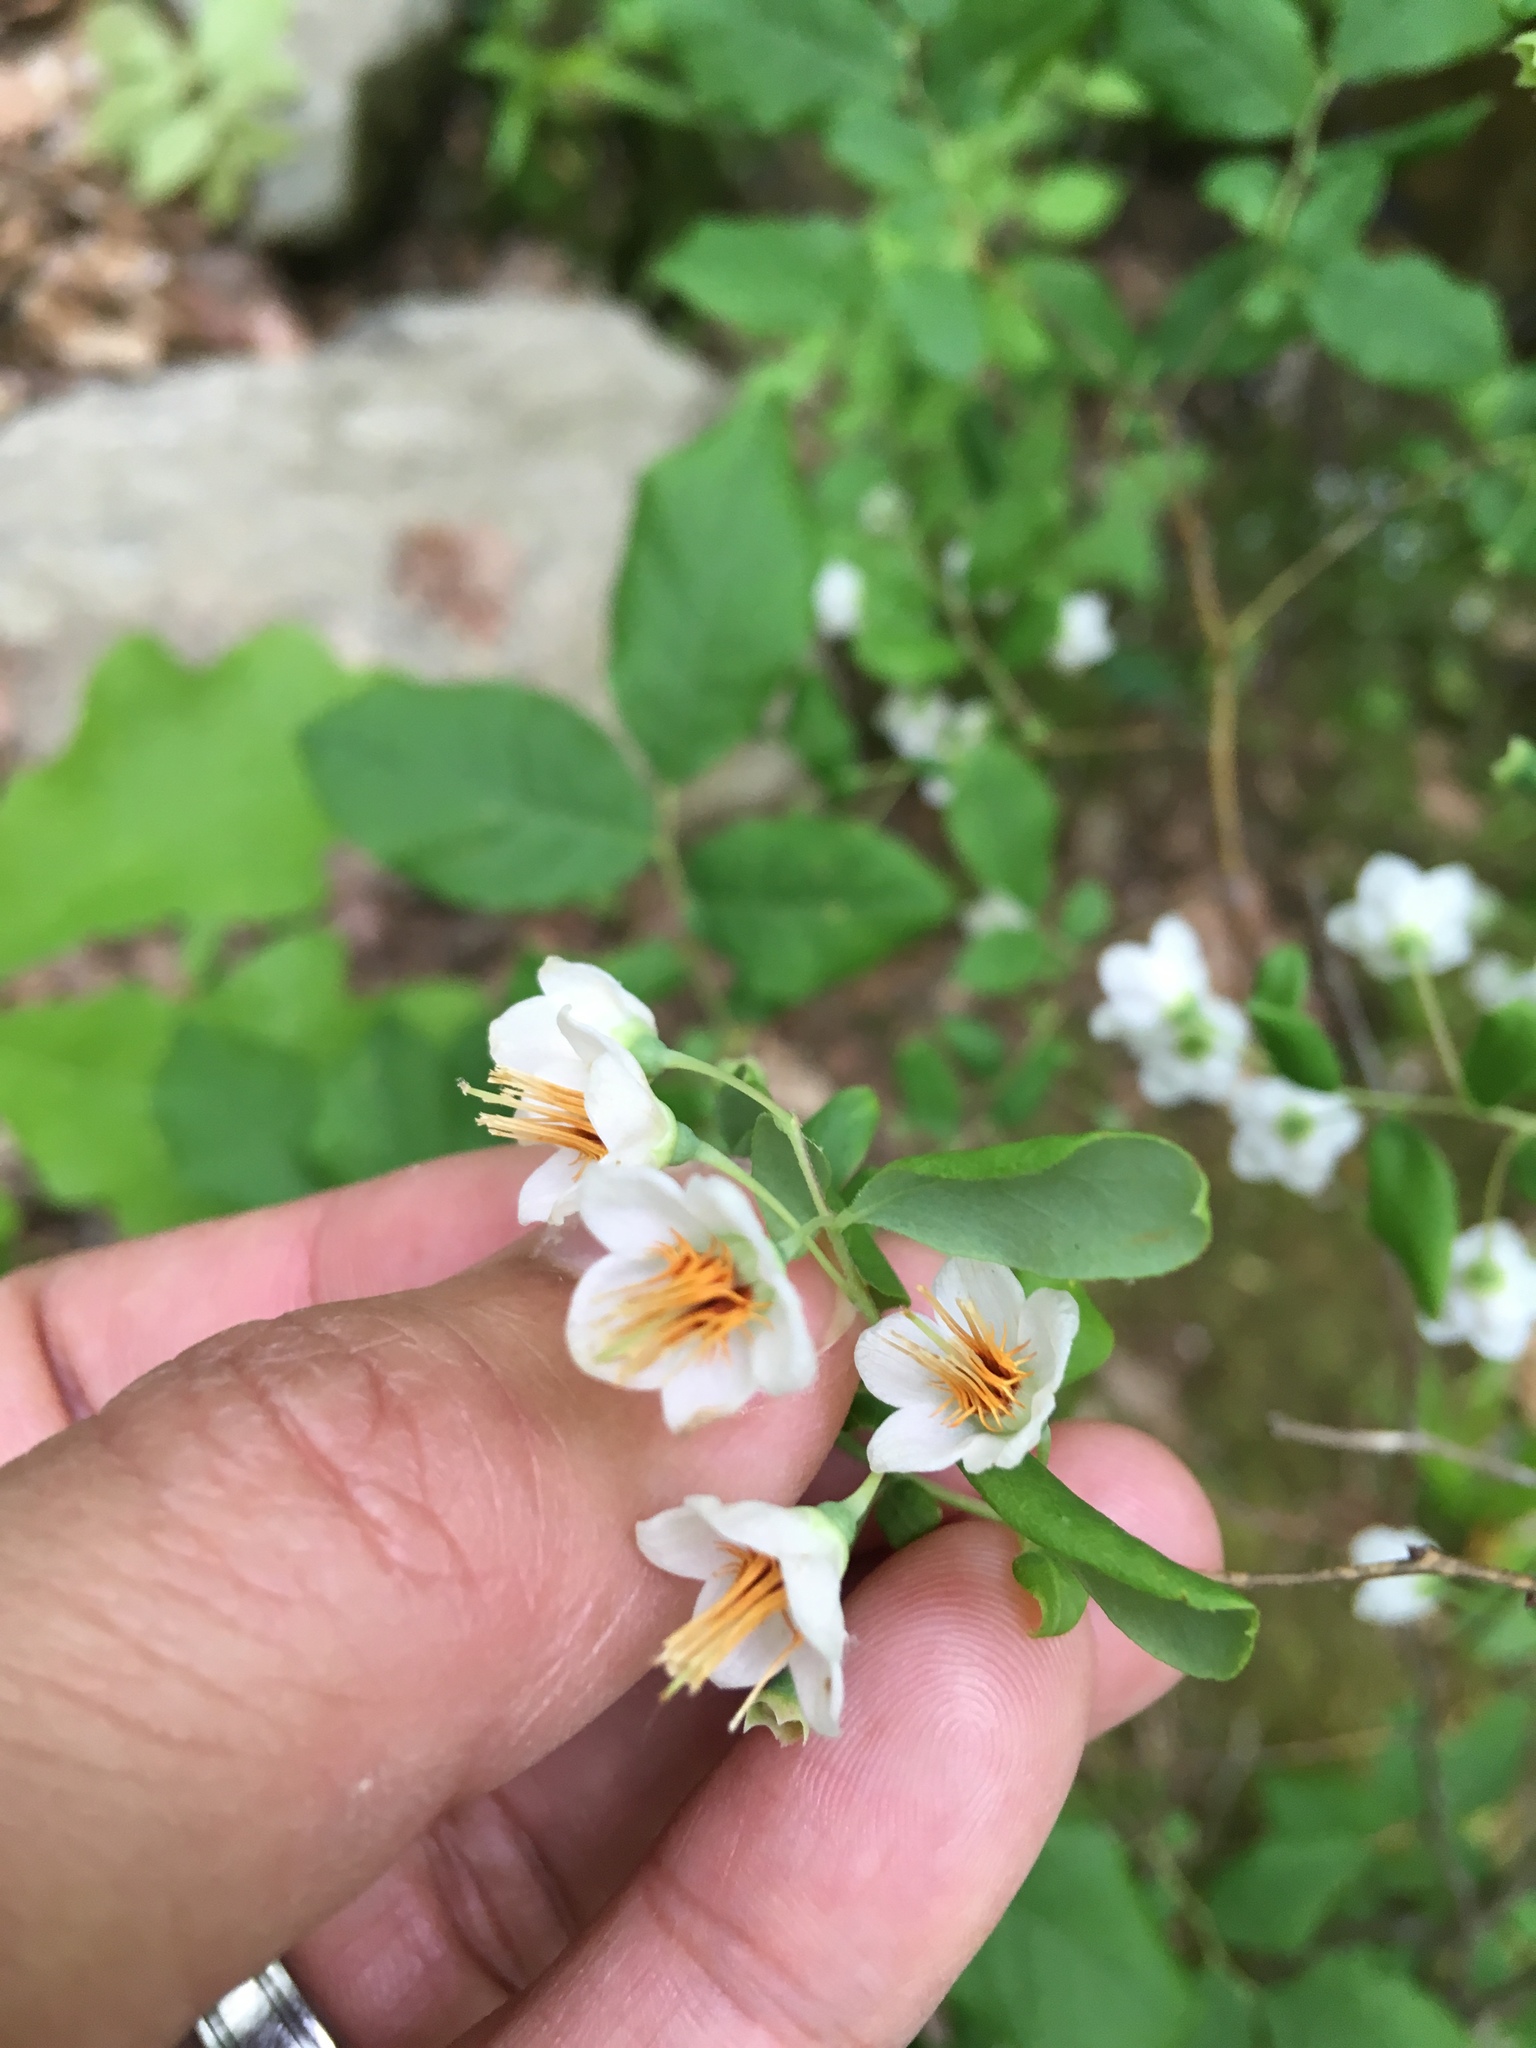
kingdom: Plantae
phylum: Tracheophyta
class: Magnoliopsida
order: Ericales
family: Ericaceae
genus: Vaccinium
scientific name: Vaccinium stamineum
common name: Deerberry
